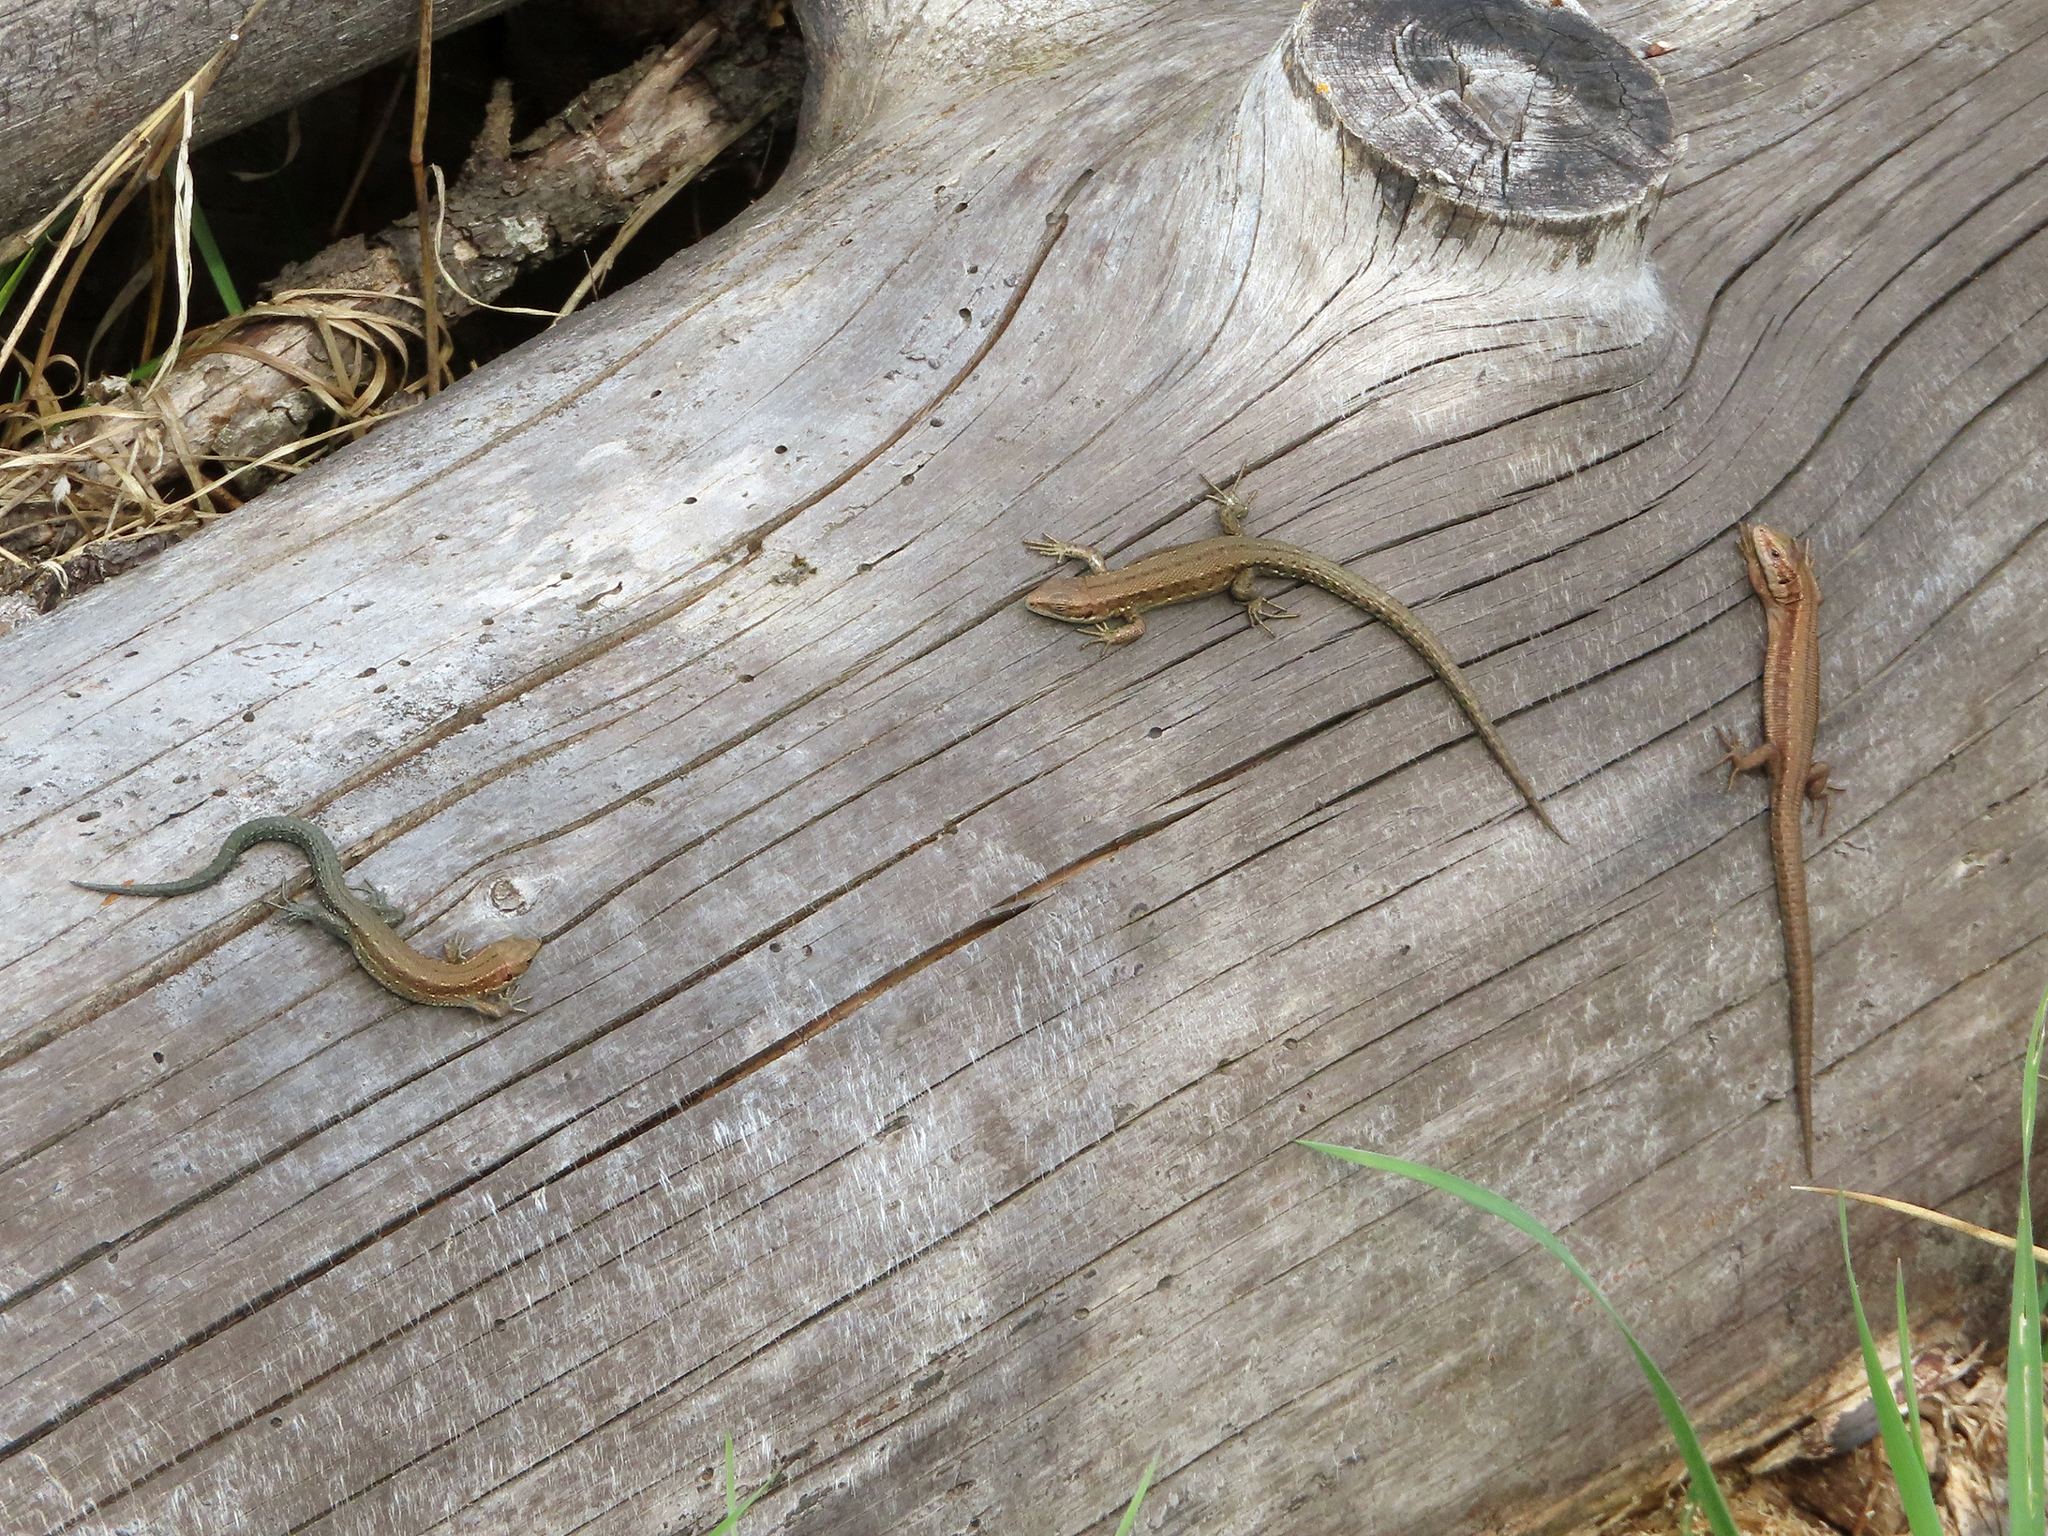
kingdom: Animalia
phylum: Chordata
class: Squamata
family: Lacertidae
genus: Zootoca
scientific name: Zootoca vivipara
